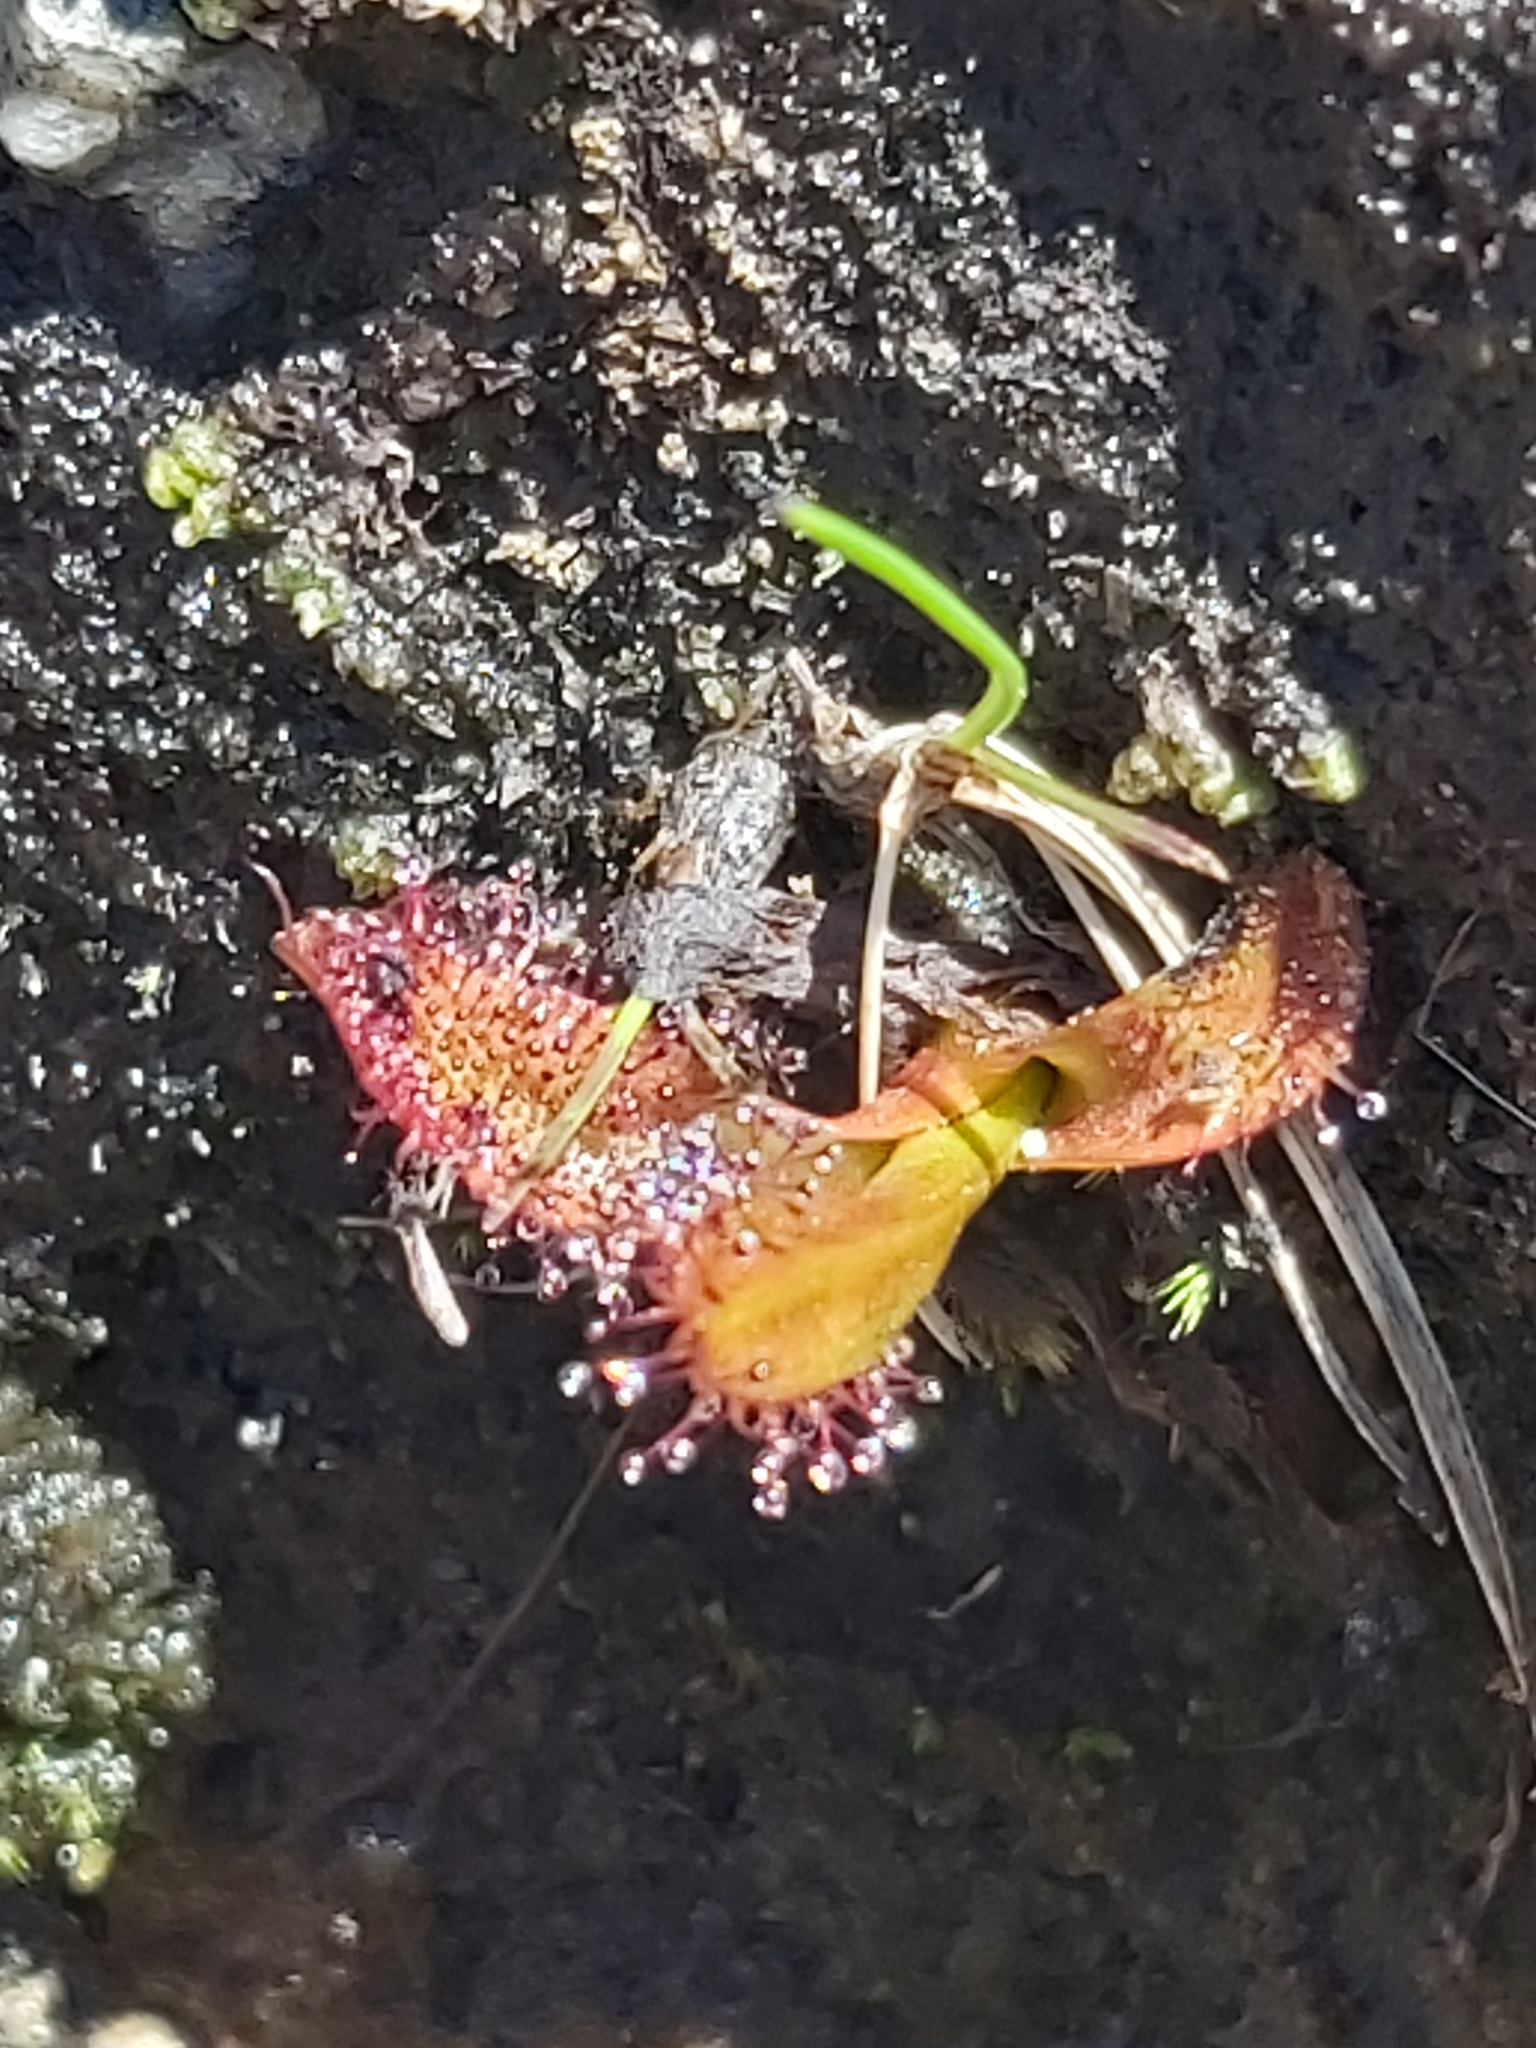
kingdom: Plantae
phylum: Tracheophyta
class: Magnoliopsida
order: Caryophyllales
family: Droseraceae
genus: Drosera
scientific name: Drosera arcturi
